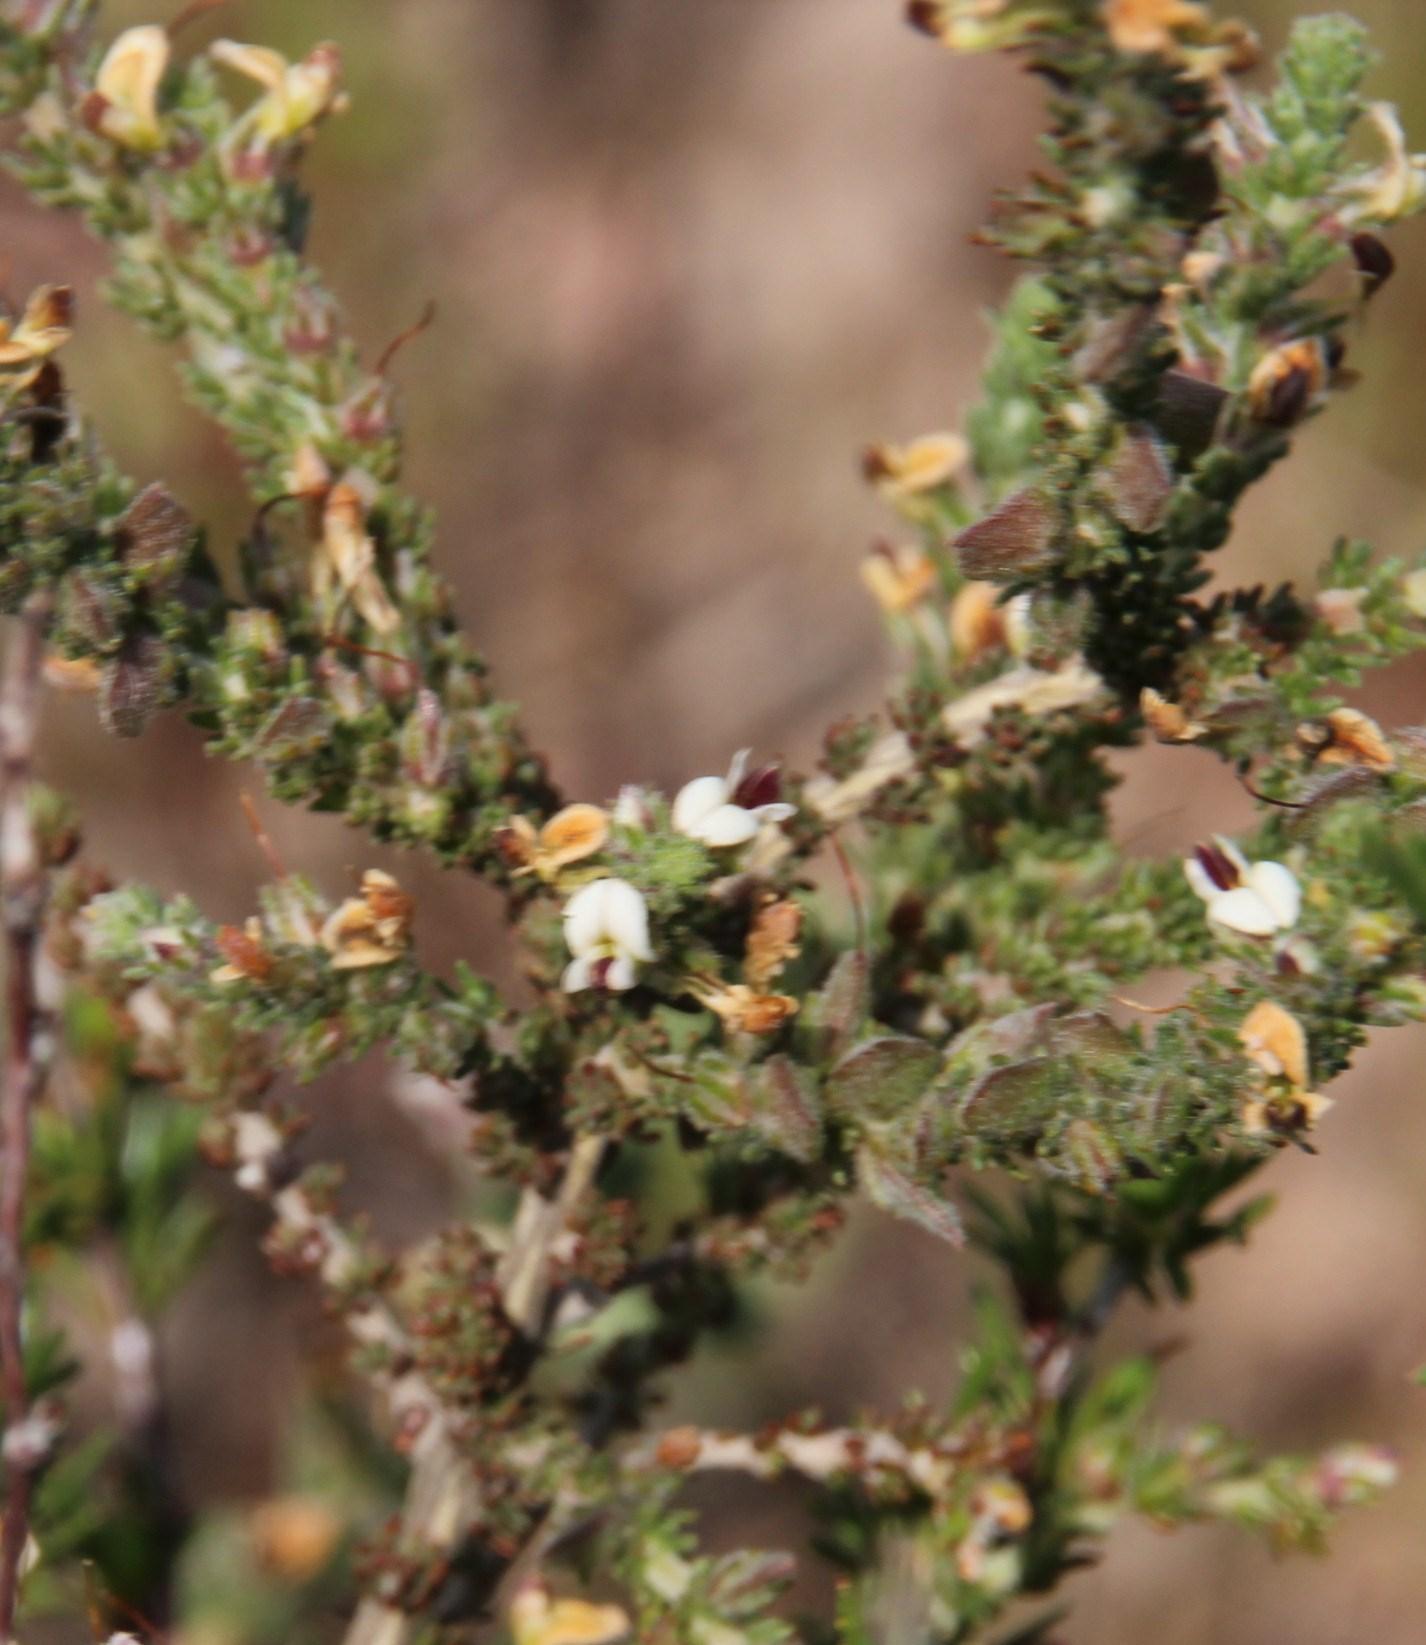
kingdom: Plantae
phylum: Tracheophyta
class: Magnoliopsida
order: Fabales
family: Fabaceae
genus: Aspalathus
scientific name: Aspalathus hispida
